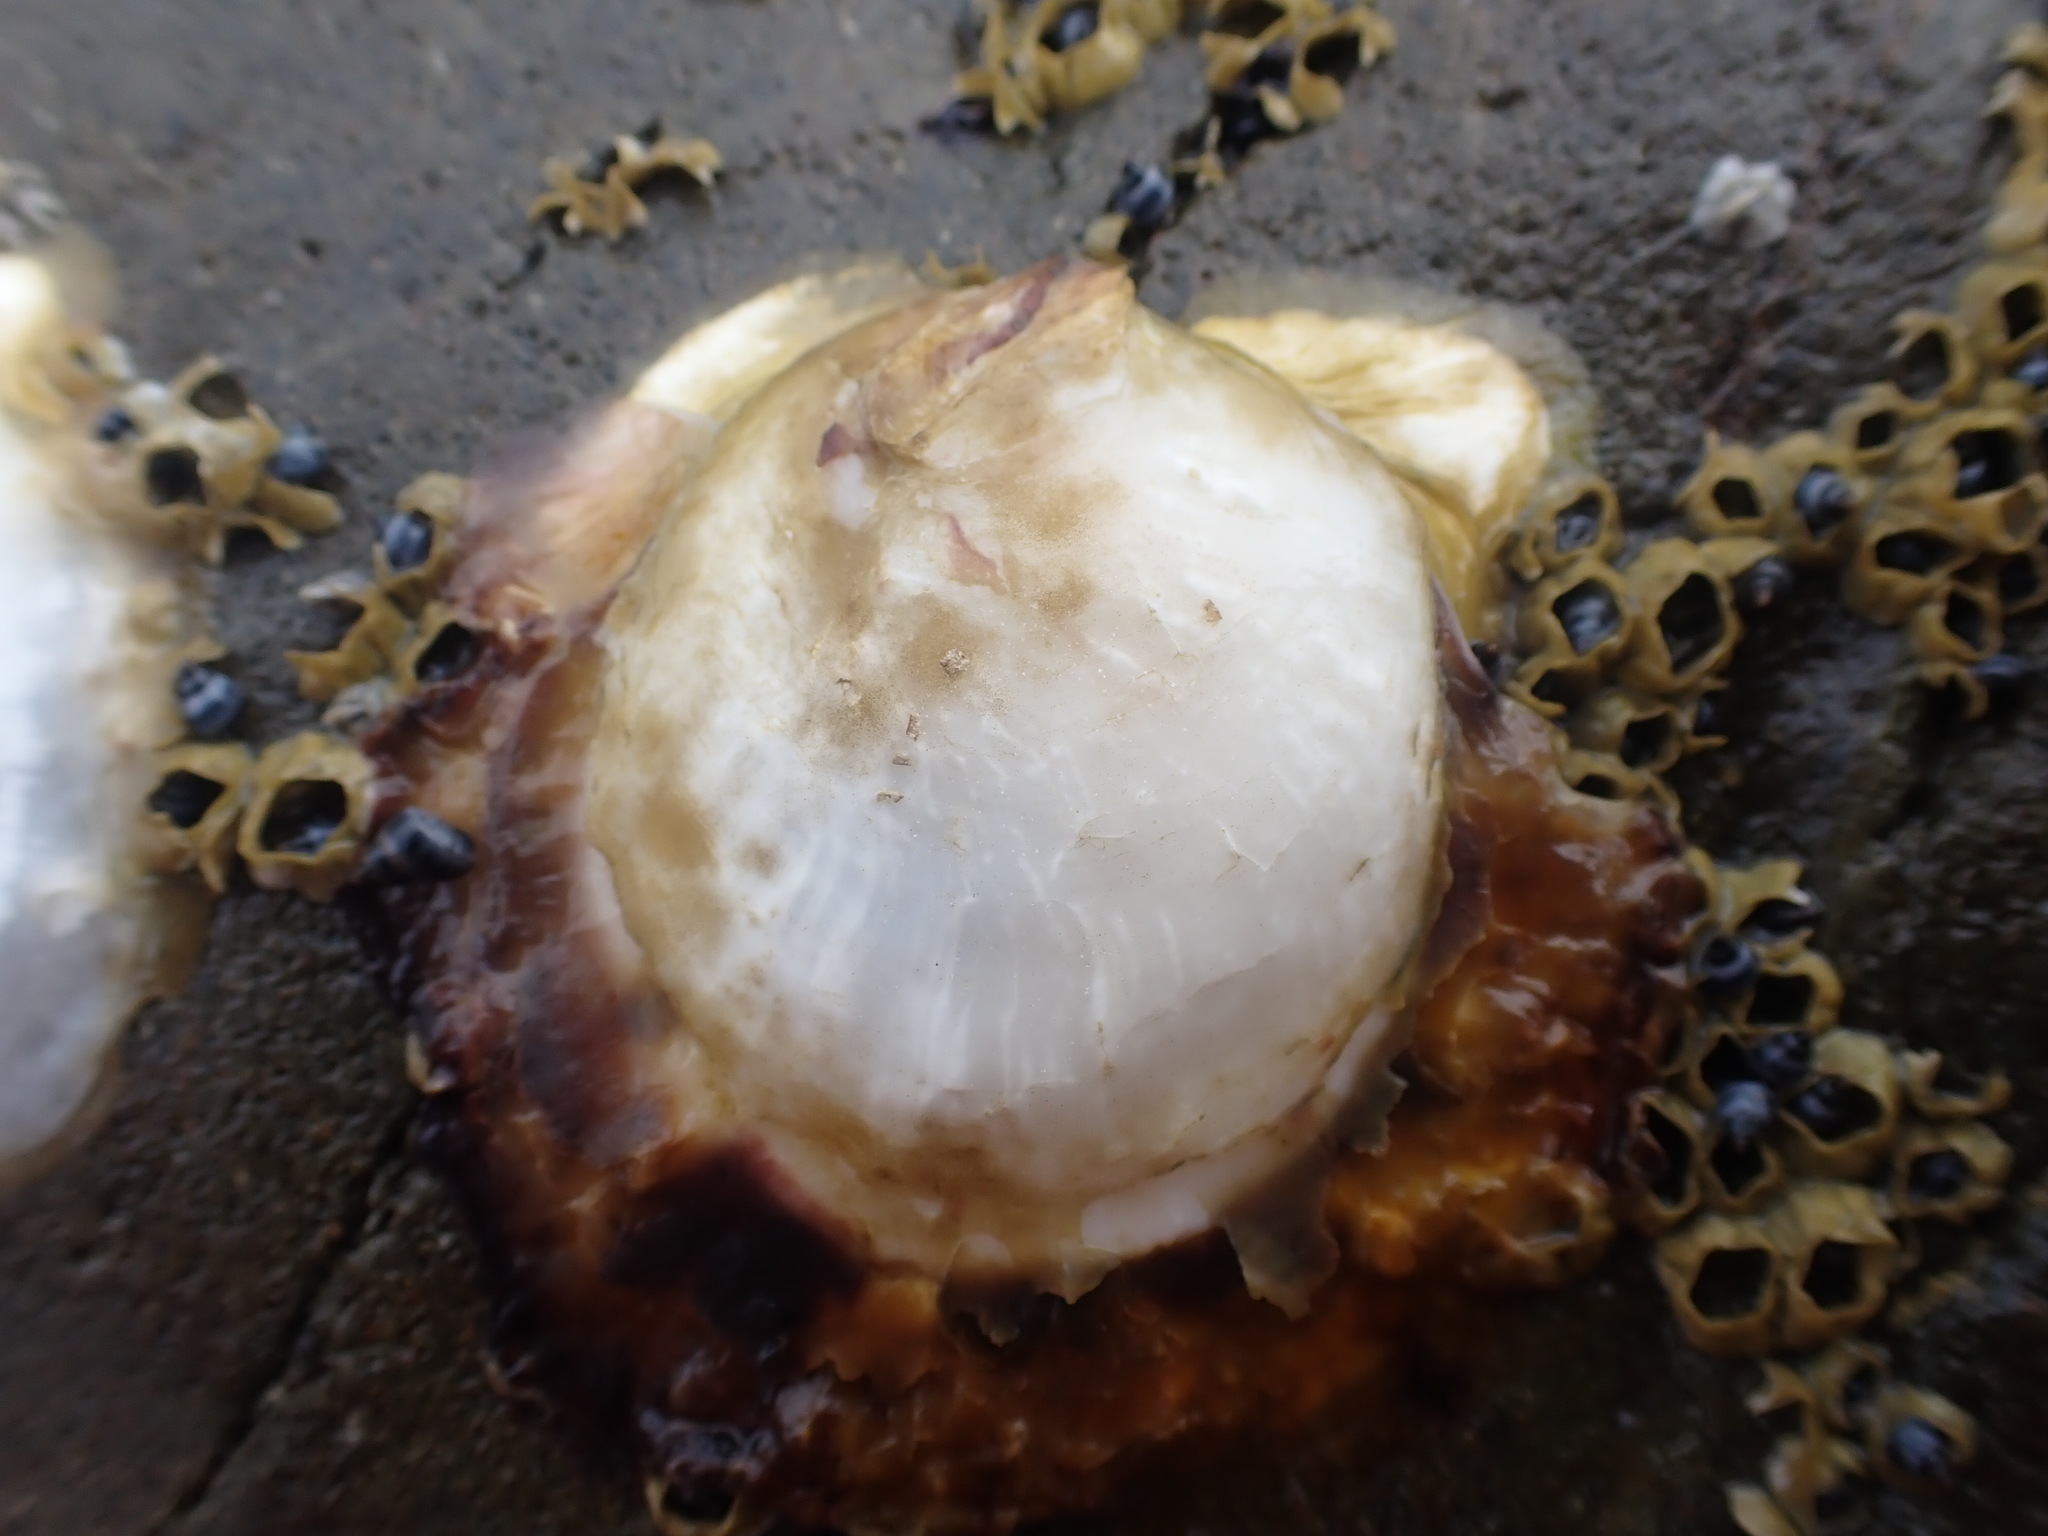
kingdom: Animalia
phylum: Mollusca
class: Bivalvia
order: Ostreida
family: Ostreidae
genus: Magallana
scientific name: Magallana gigas
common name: Pacific oyster
